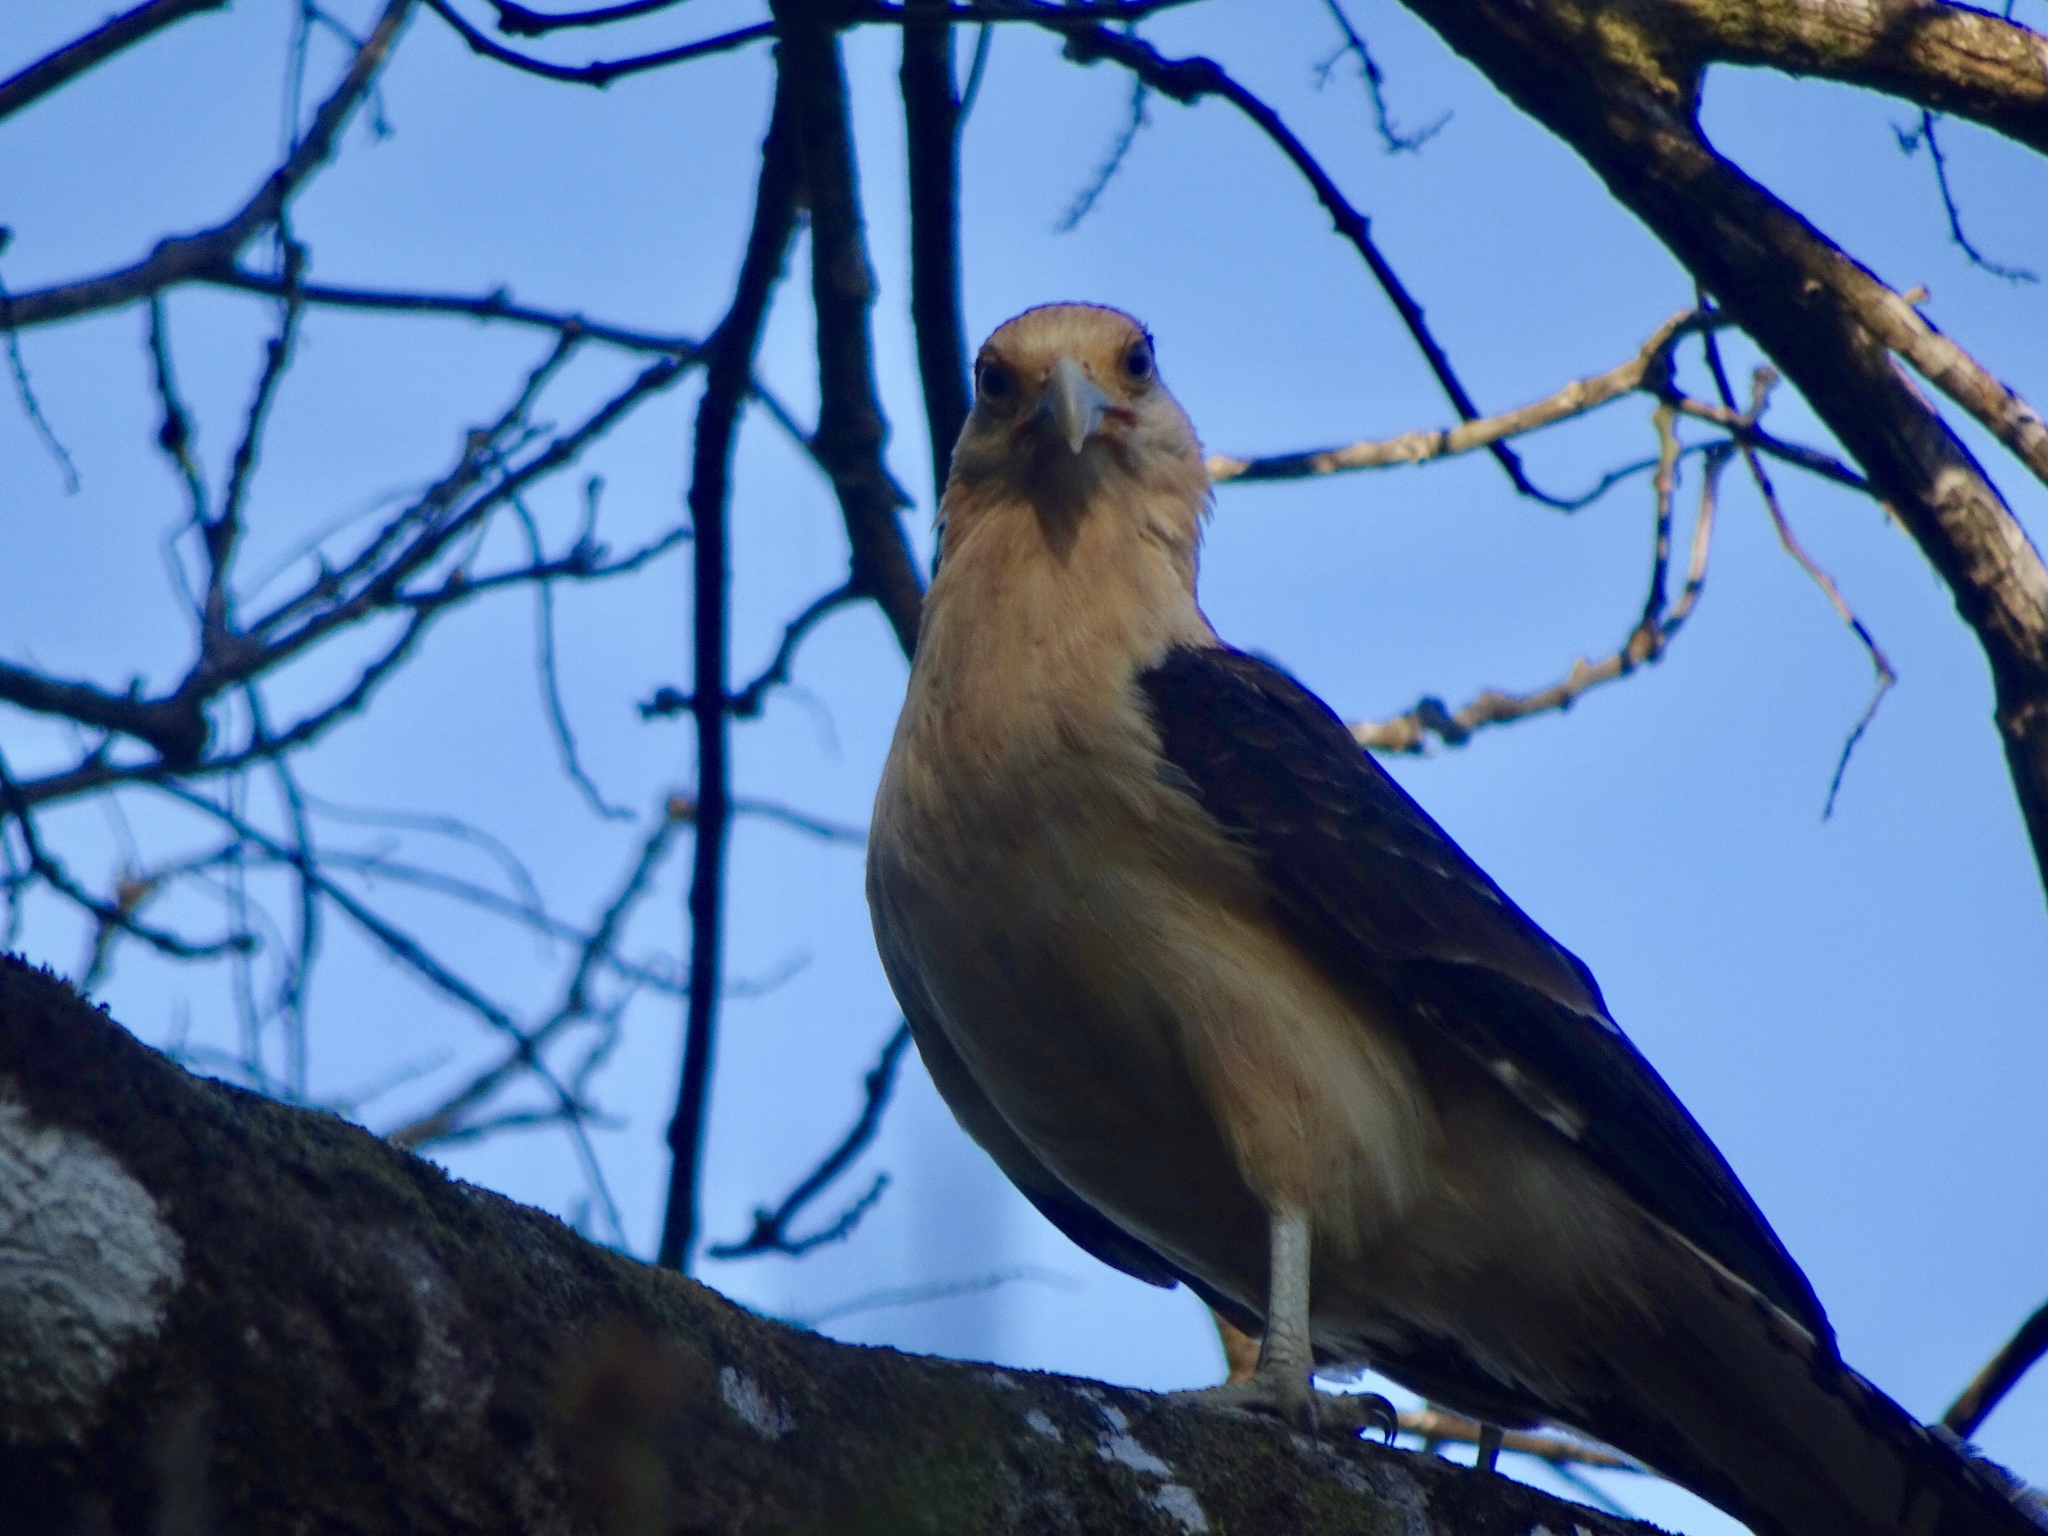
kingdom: Animalia
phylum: Chordata
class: Aves
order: Falconiformes
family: Falconidae
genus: Daptrius
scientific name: Daptrius
